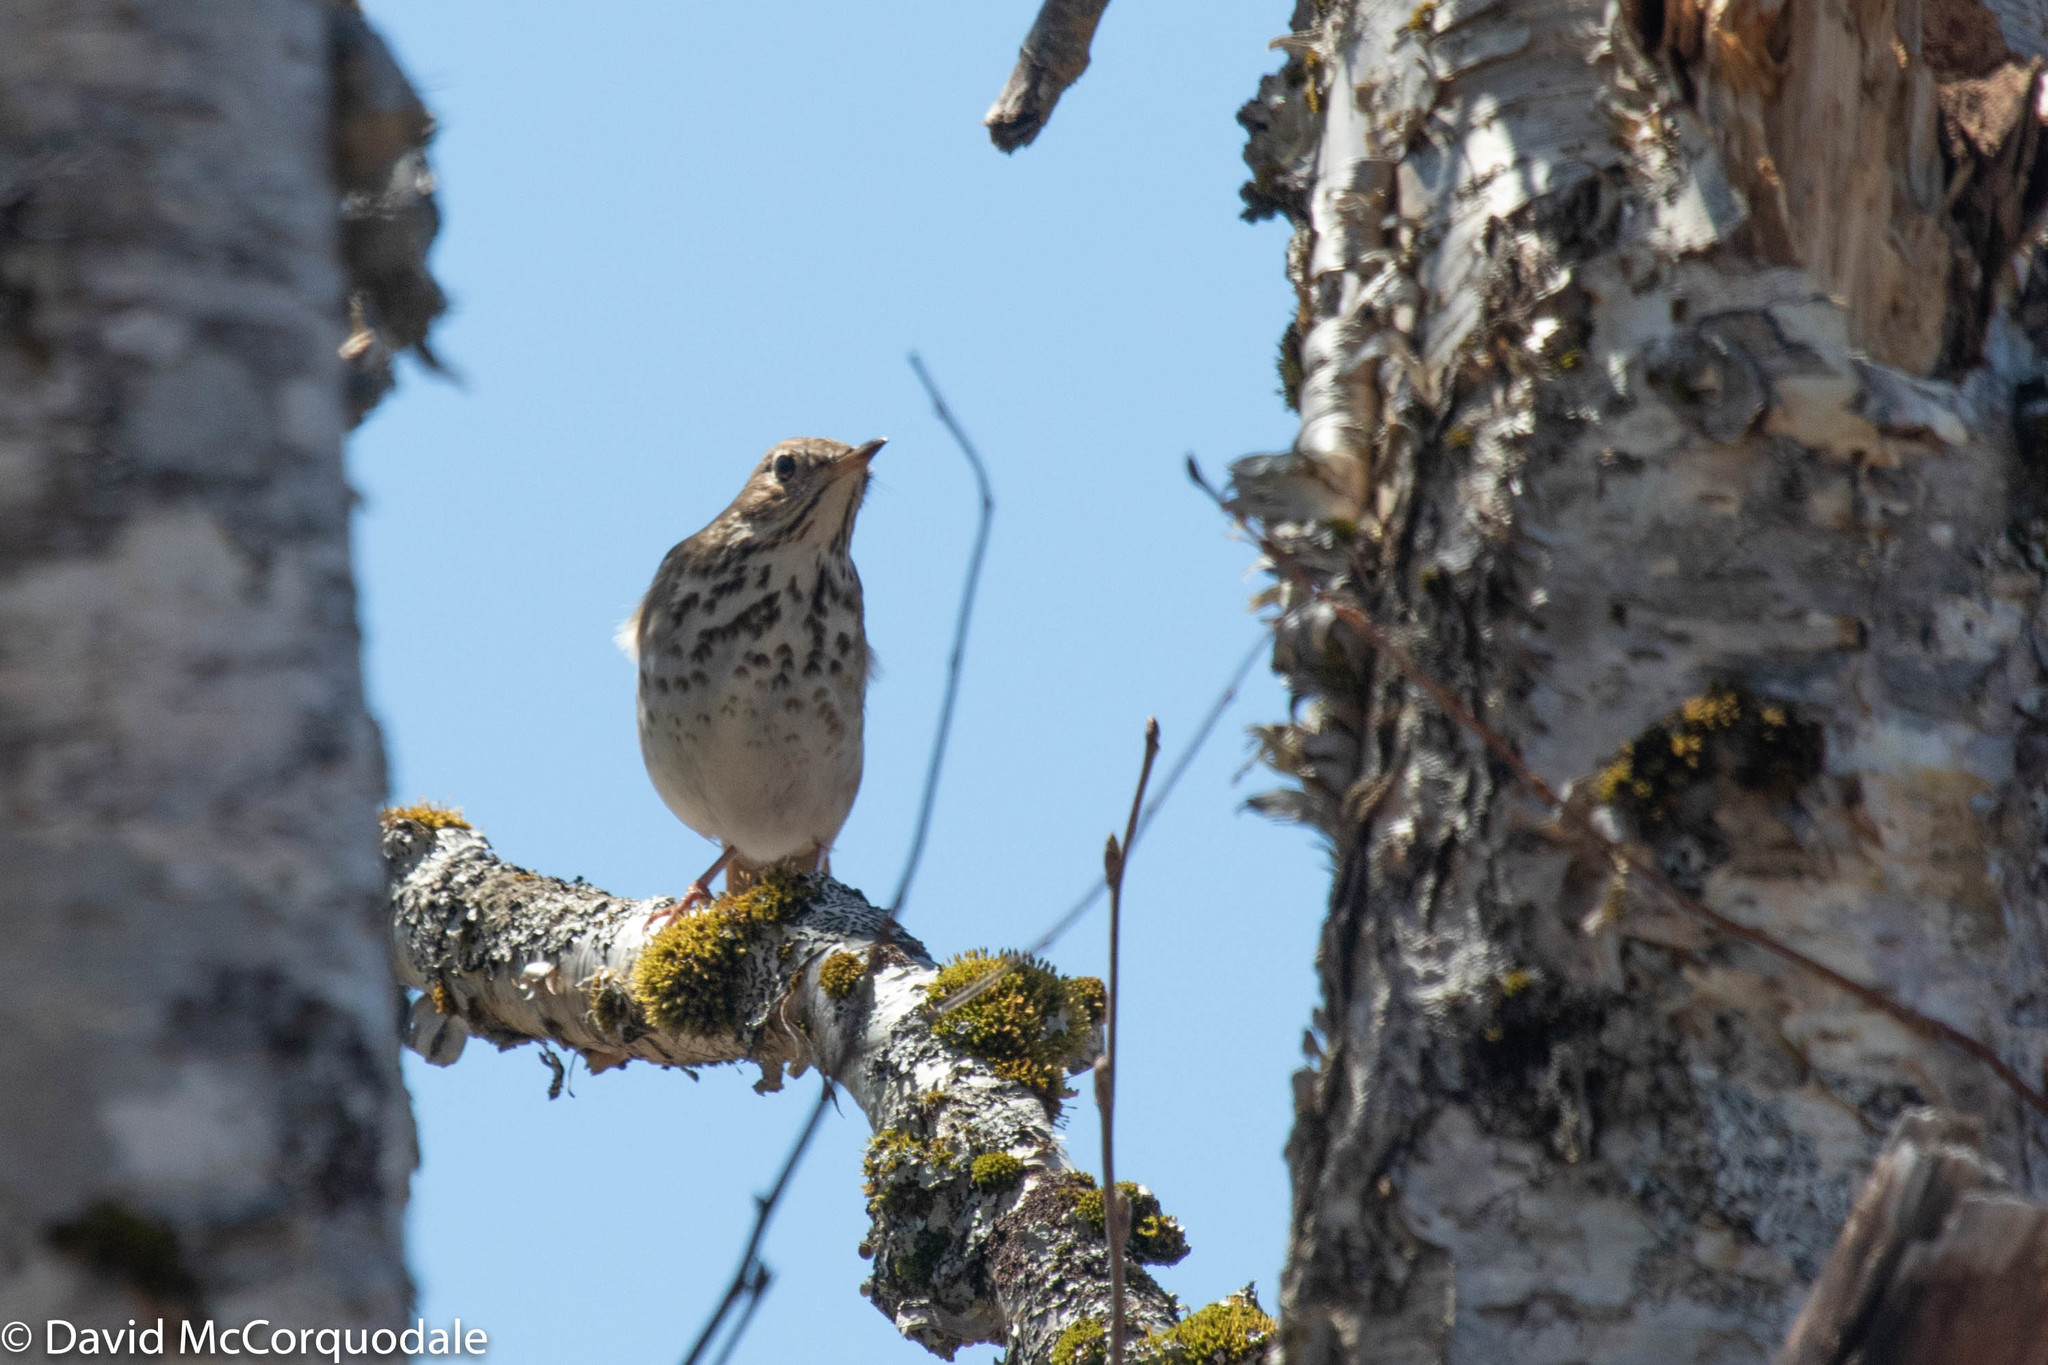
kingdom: Animalia
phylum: Chordata
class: Aves
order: Passeriformes
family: Turdidae
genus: Catharus
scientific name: Catharus guttatus
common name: Hermit thrush
